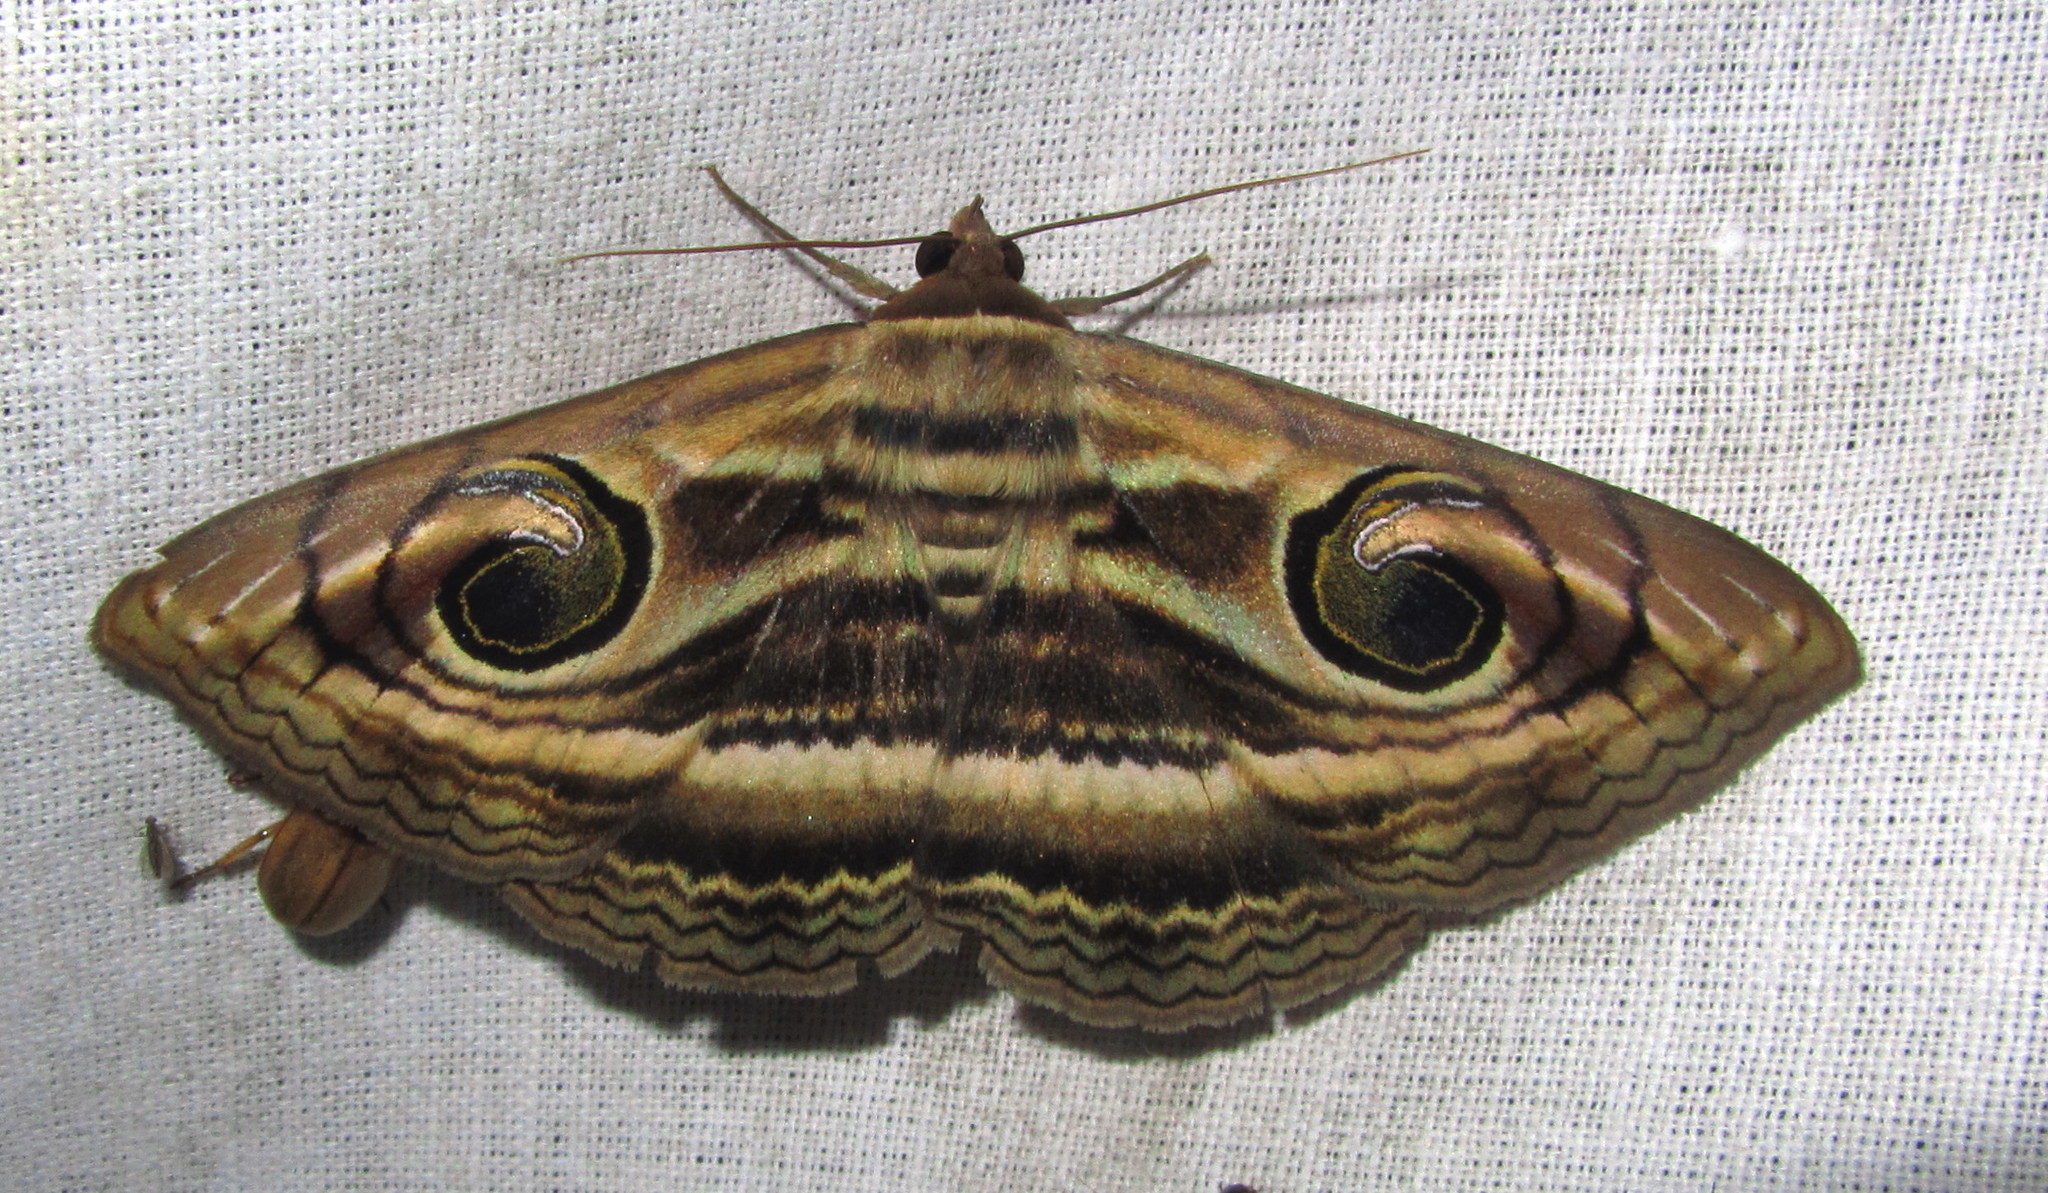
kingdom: Animalia
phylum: Arthropoda
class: Insecta
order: Lepidoptera
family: Erebidae
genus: Spirama
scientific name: Spirama
